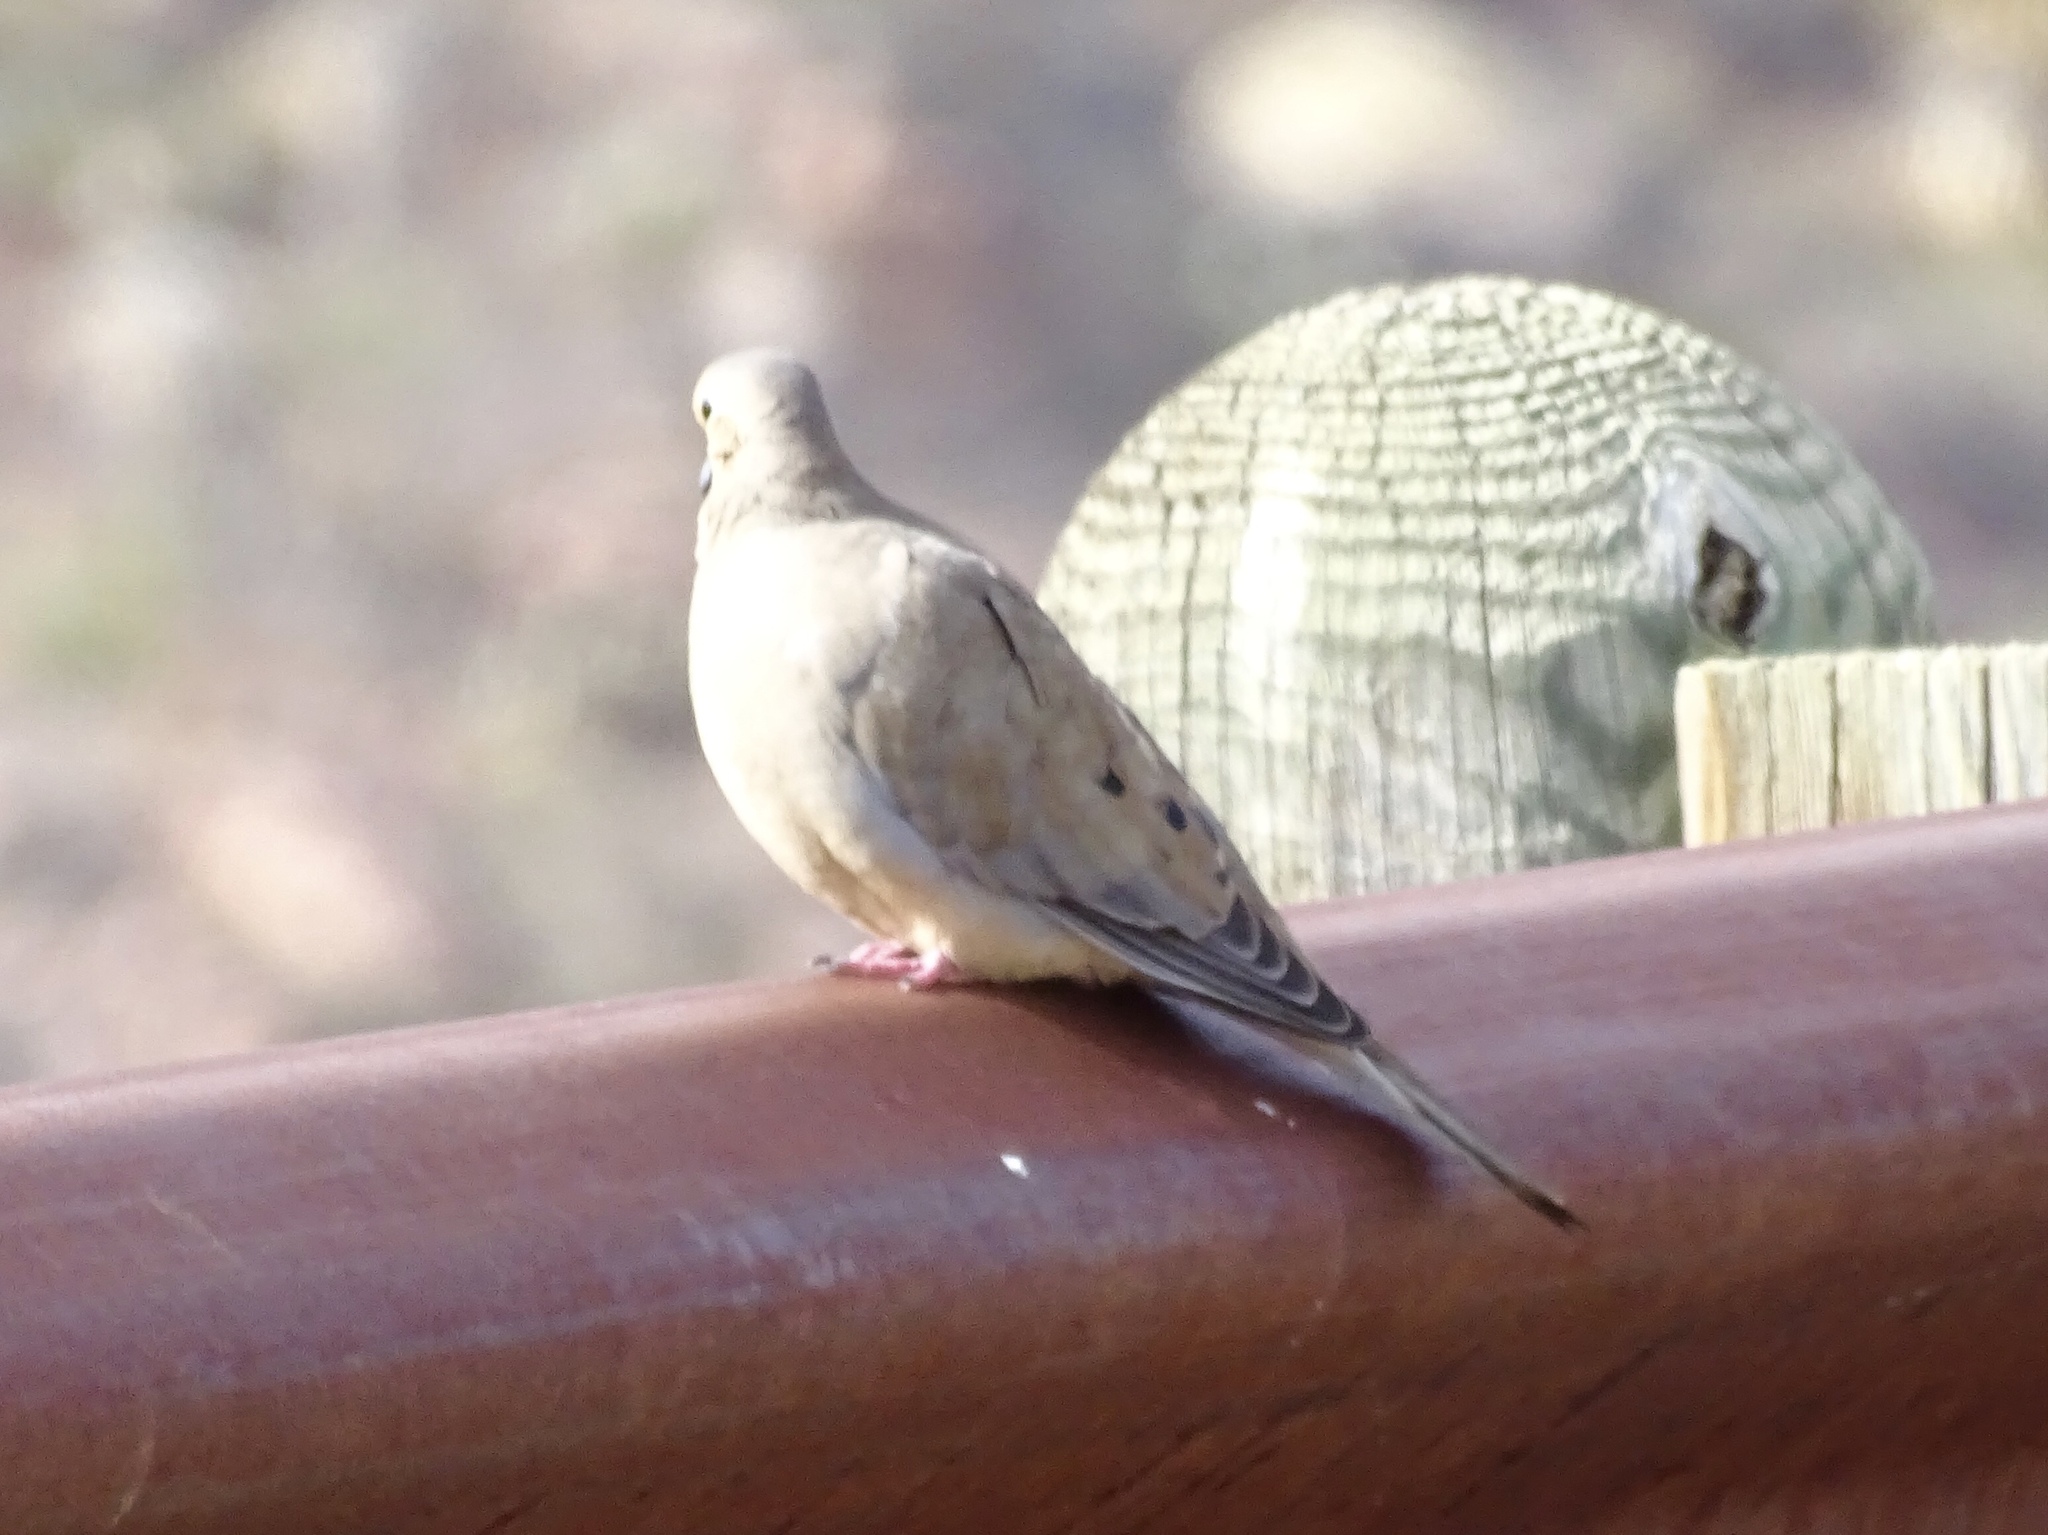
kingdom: Animalia
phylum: Chordata
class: Aves
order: Columbiformes
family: Columbidae
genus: Zenaida
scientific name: Zenaida macroura
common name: Mourning dove
